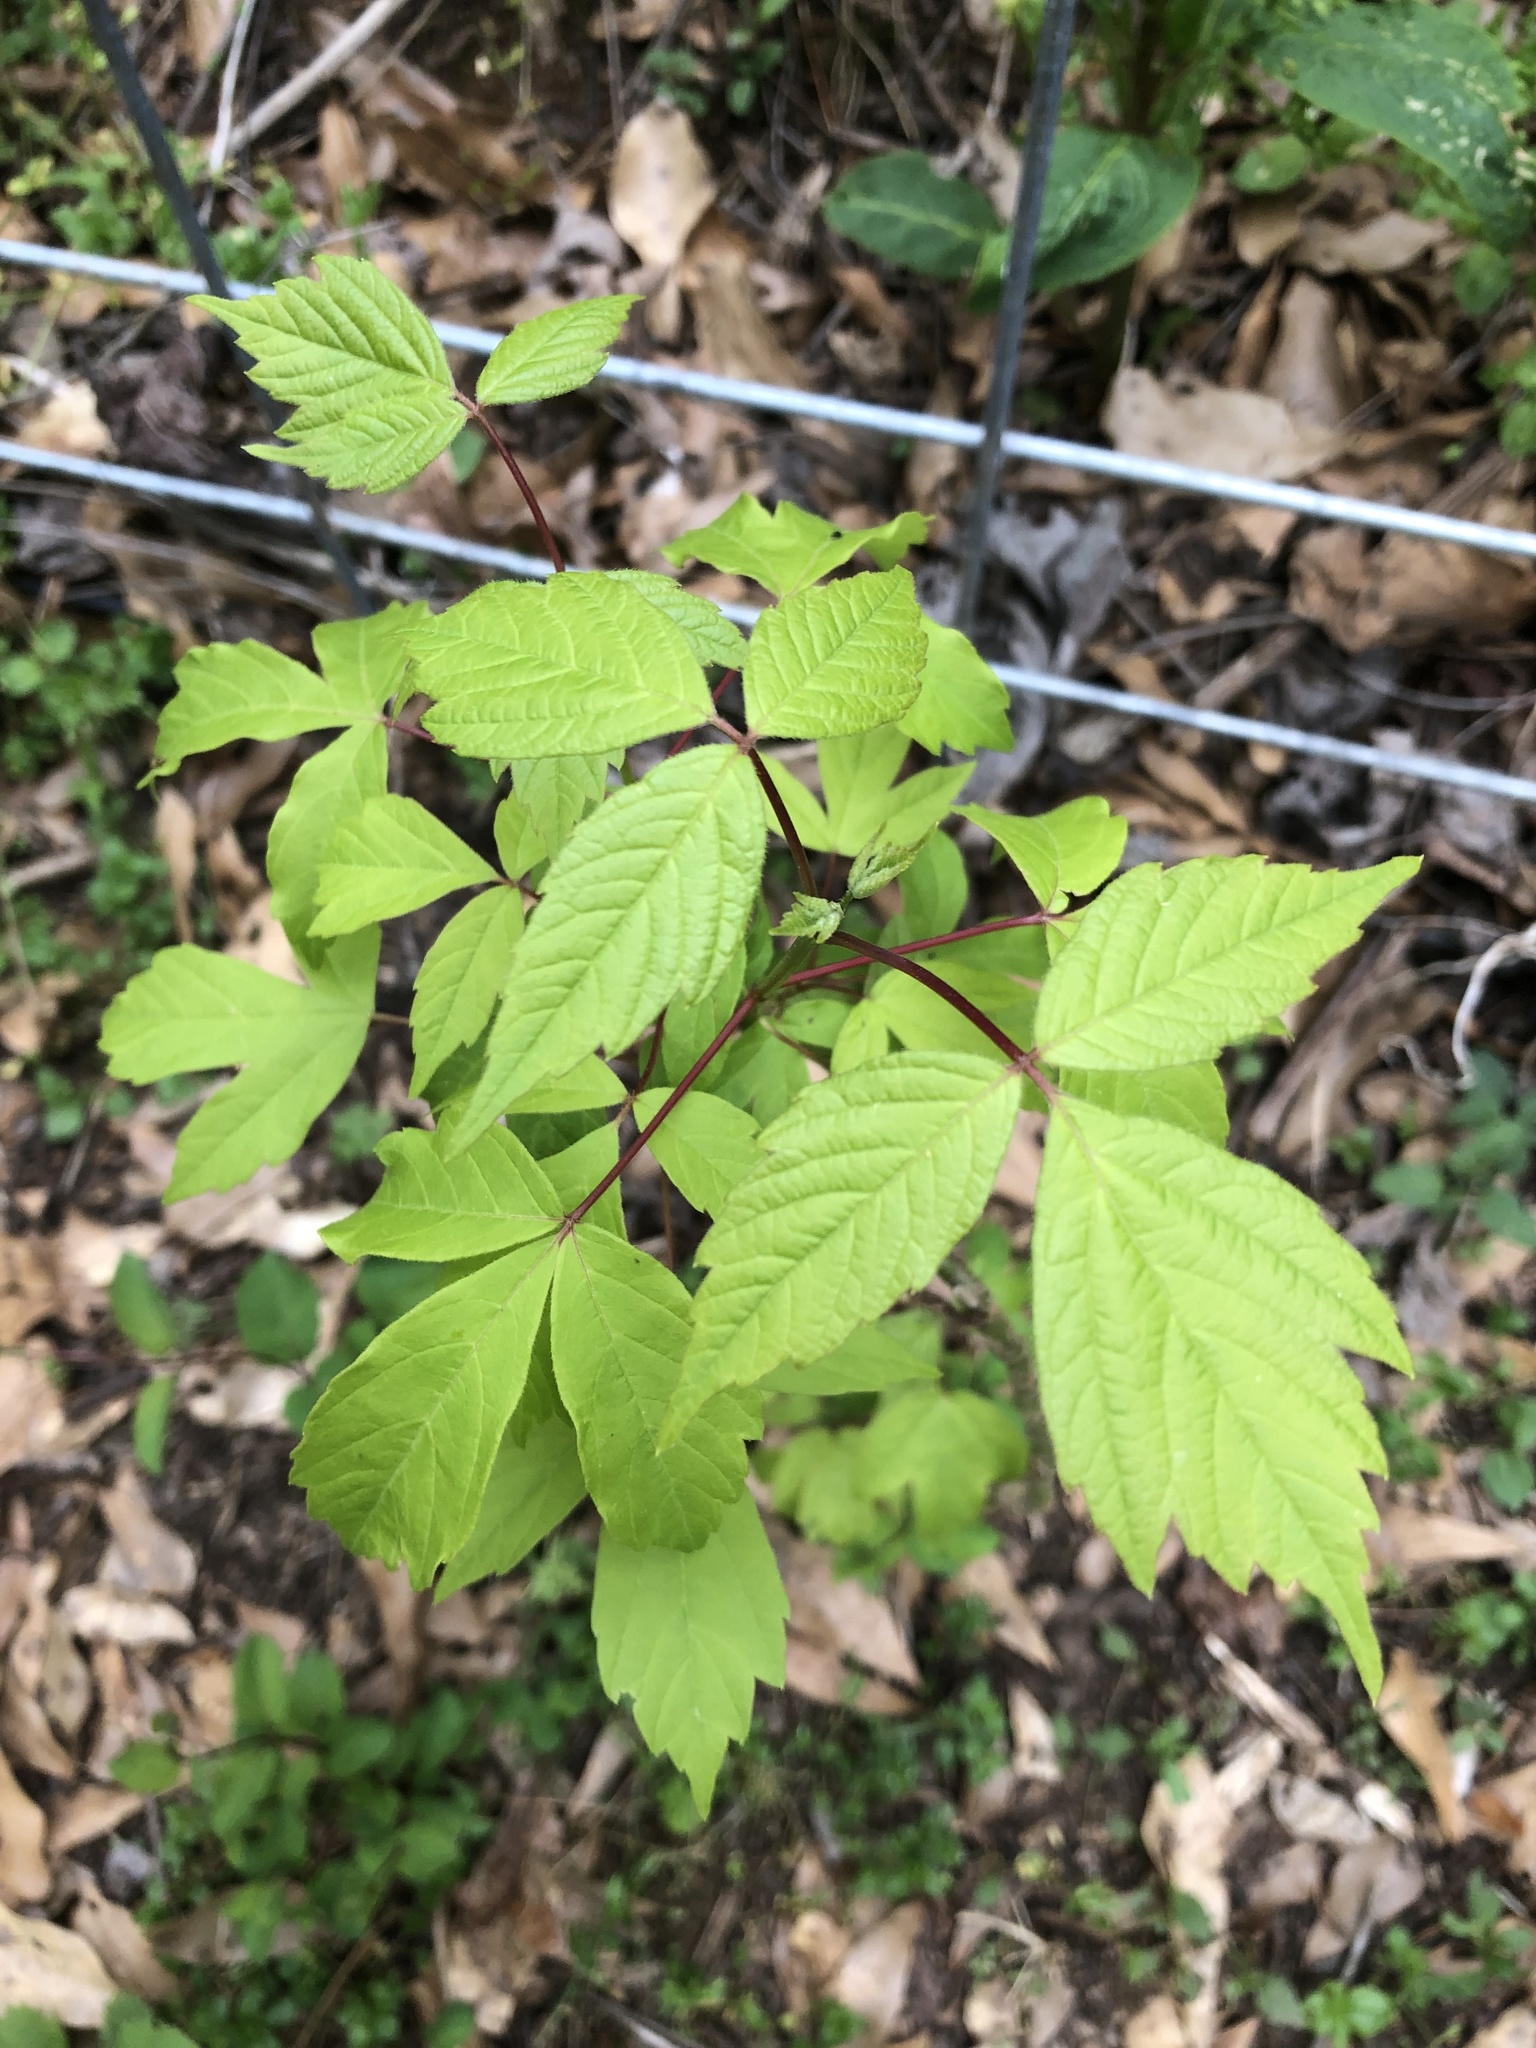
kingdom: Plantae
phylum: Tracheophyta
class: Magnoliopsida
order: Sapindales
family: Sapindaceae
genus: Acer
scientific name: Acer negundo
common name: Ashleaf maple
